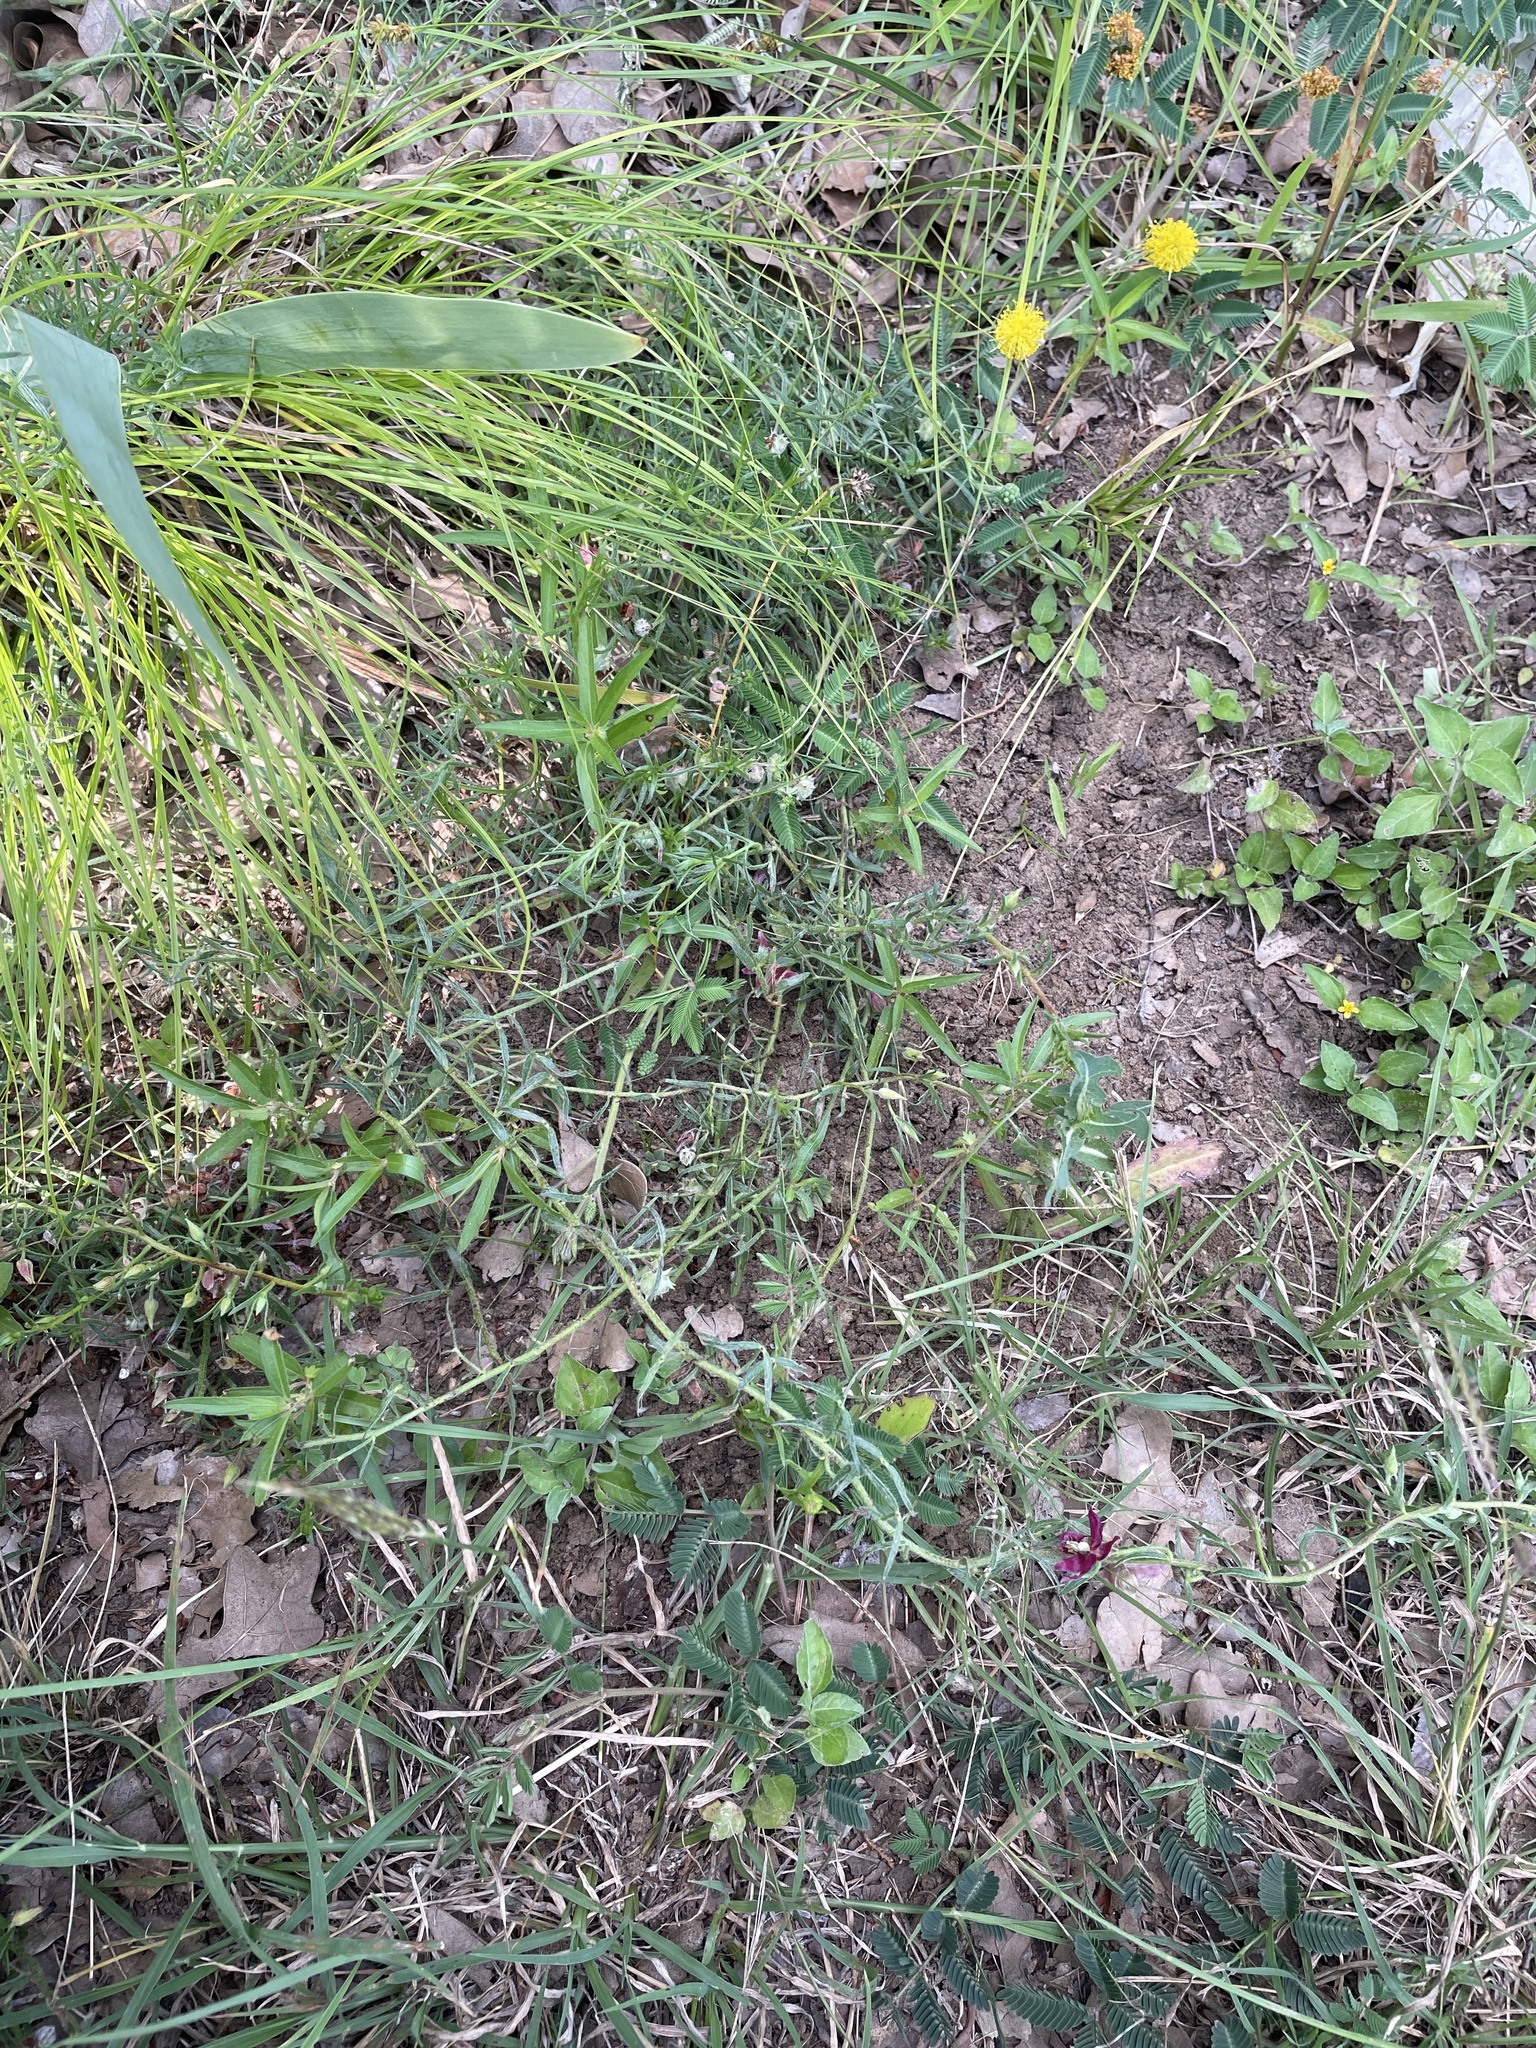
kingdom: Plantae
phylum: Tracheophyta
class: Magnoliopsida
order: Zygophyllales
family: Krameriaceae
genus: Krameria
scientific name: Krameria lanceolata
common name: Ratany
